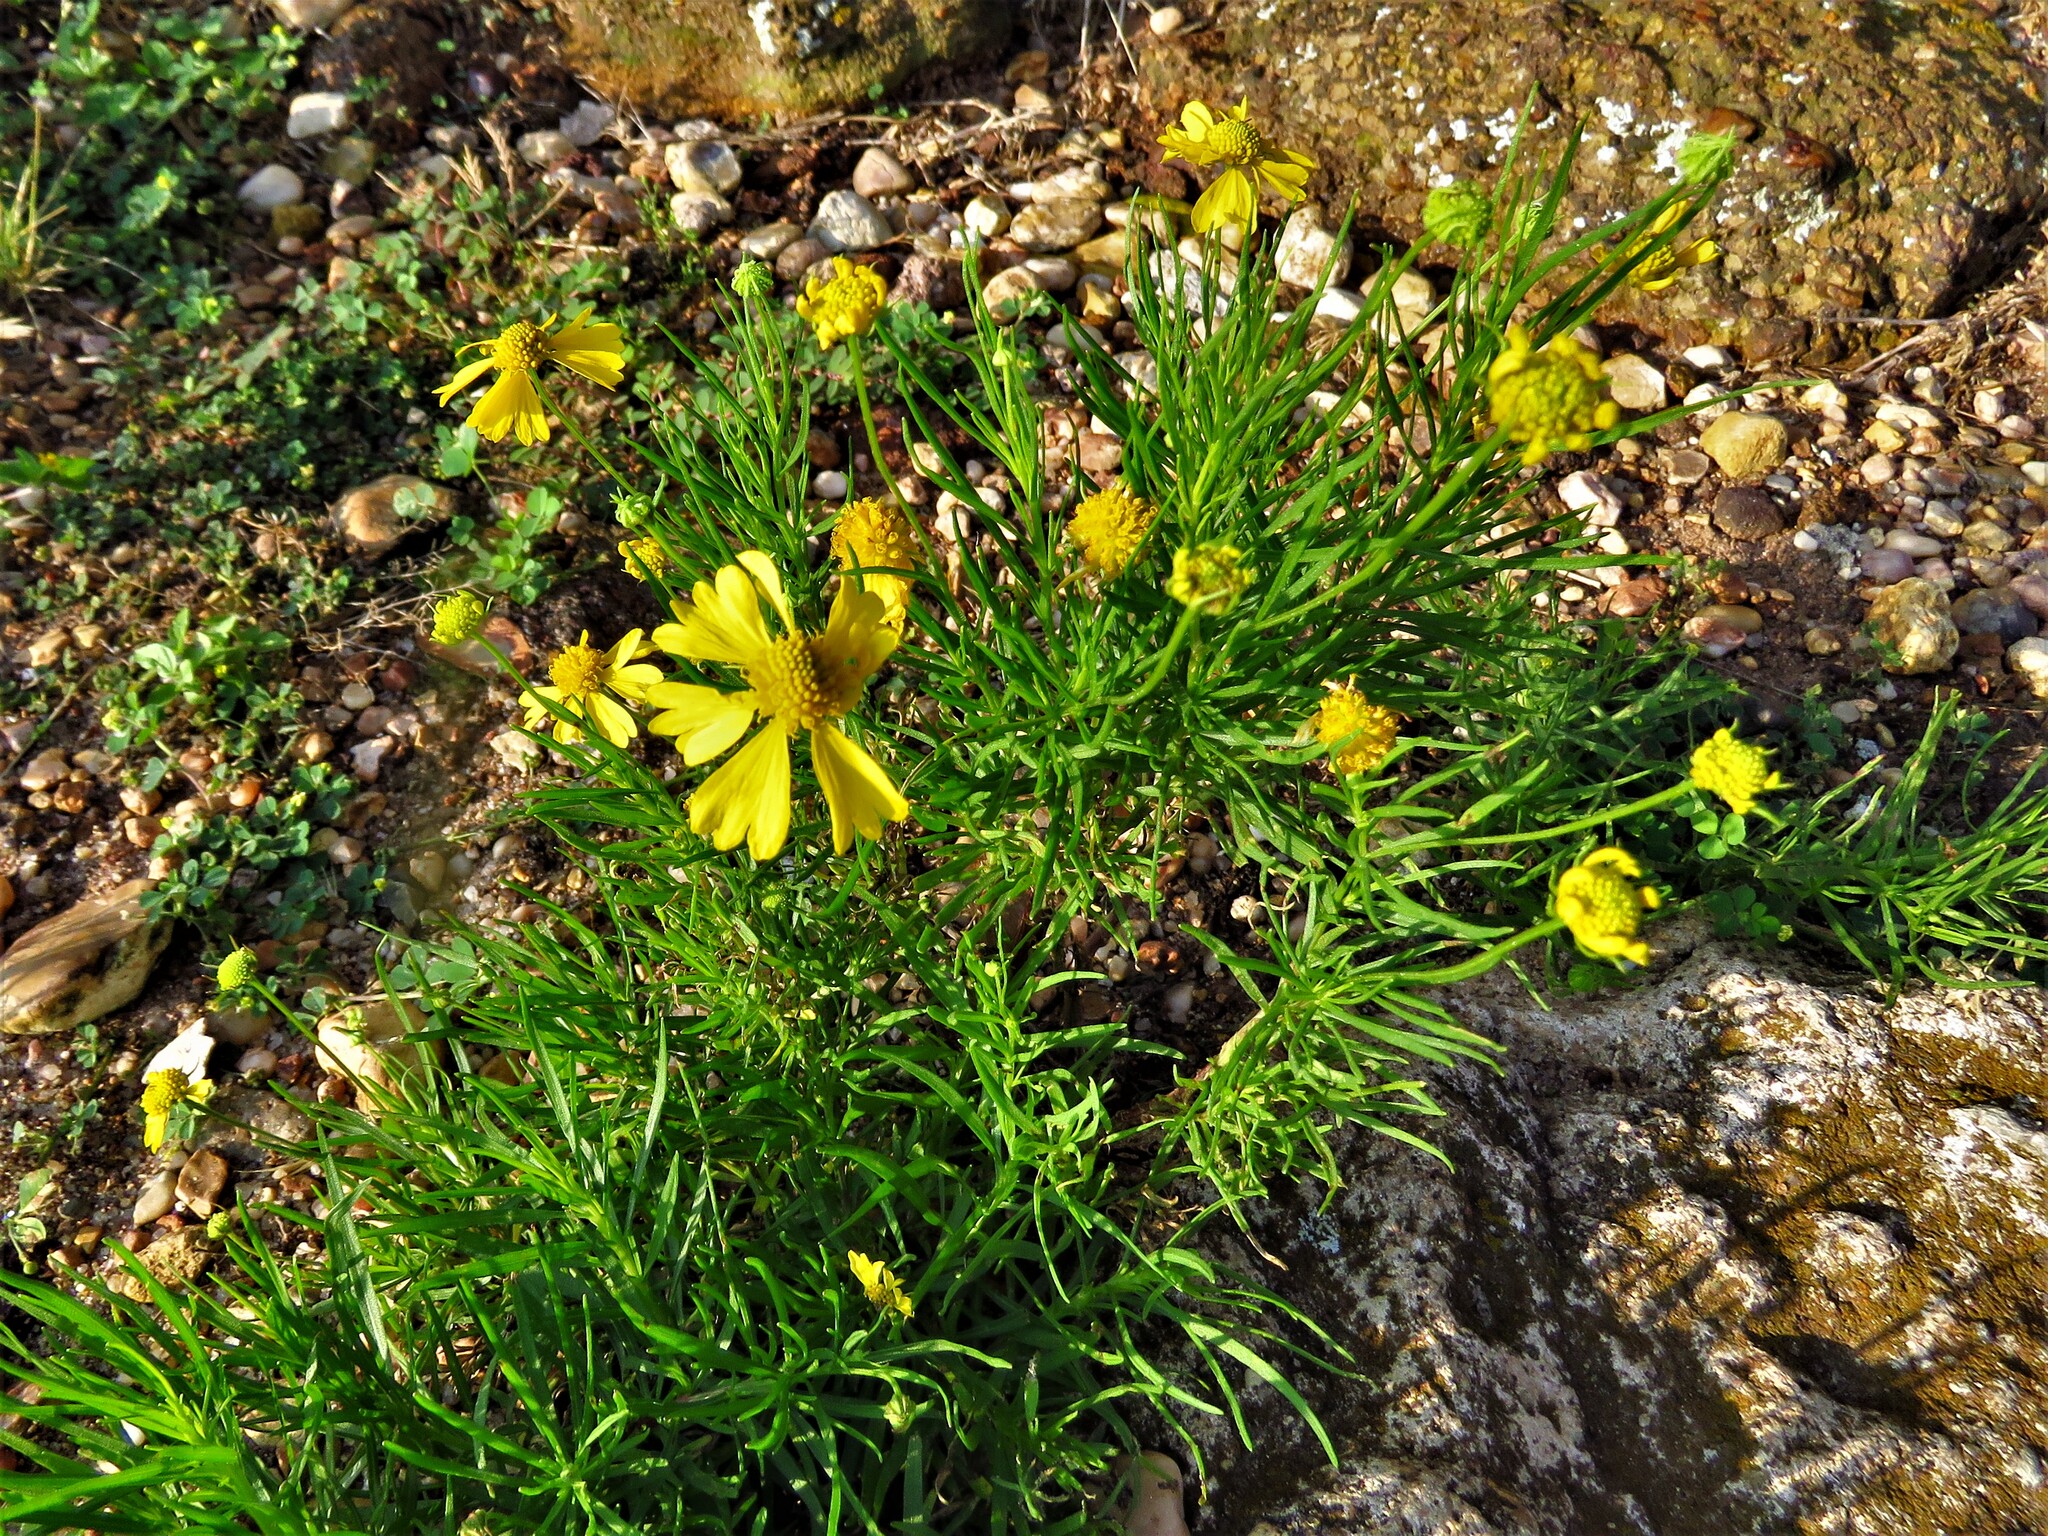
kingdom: Plantae
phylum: Tracheophyta
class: Magnoliopsida
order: Asterales
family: Asteraceae
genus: Helenium
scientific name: Helenium amarum
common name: Bitter sneezeweed
